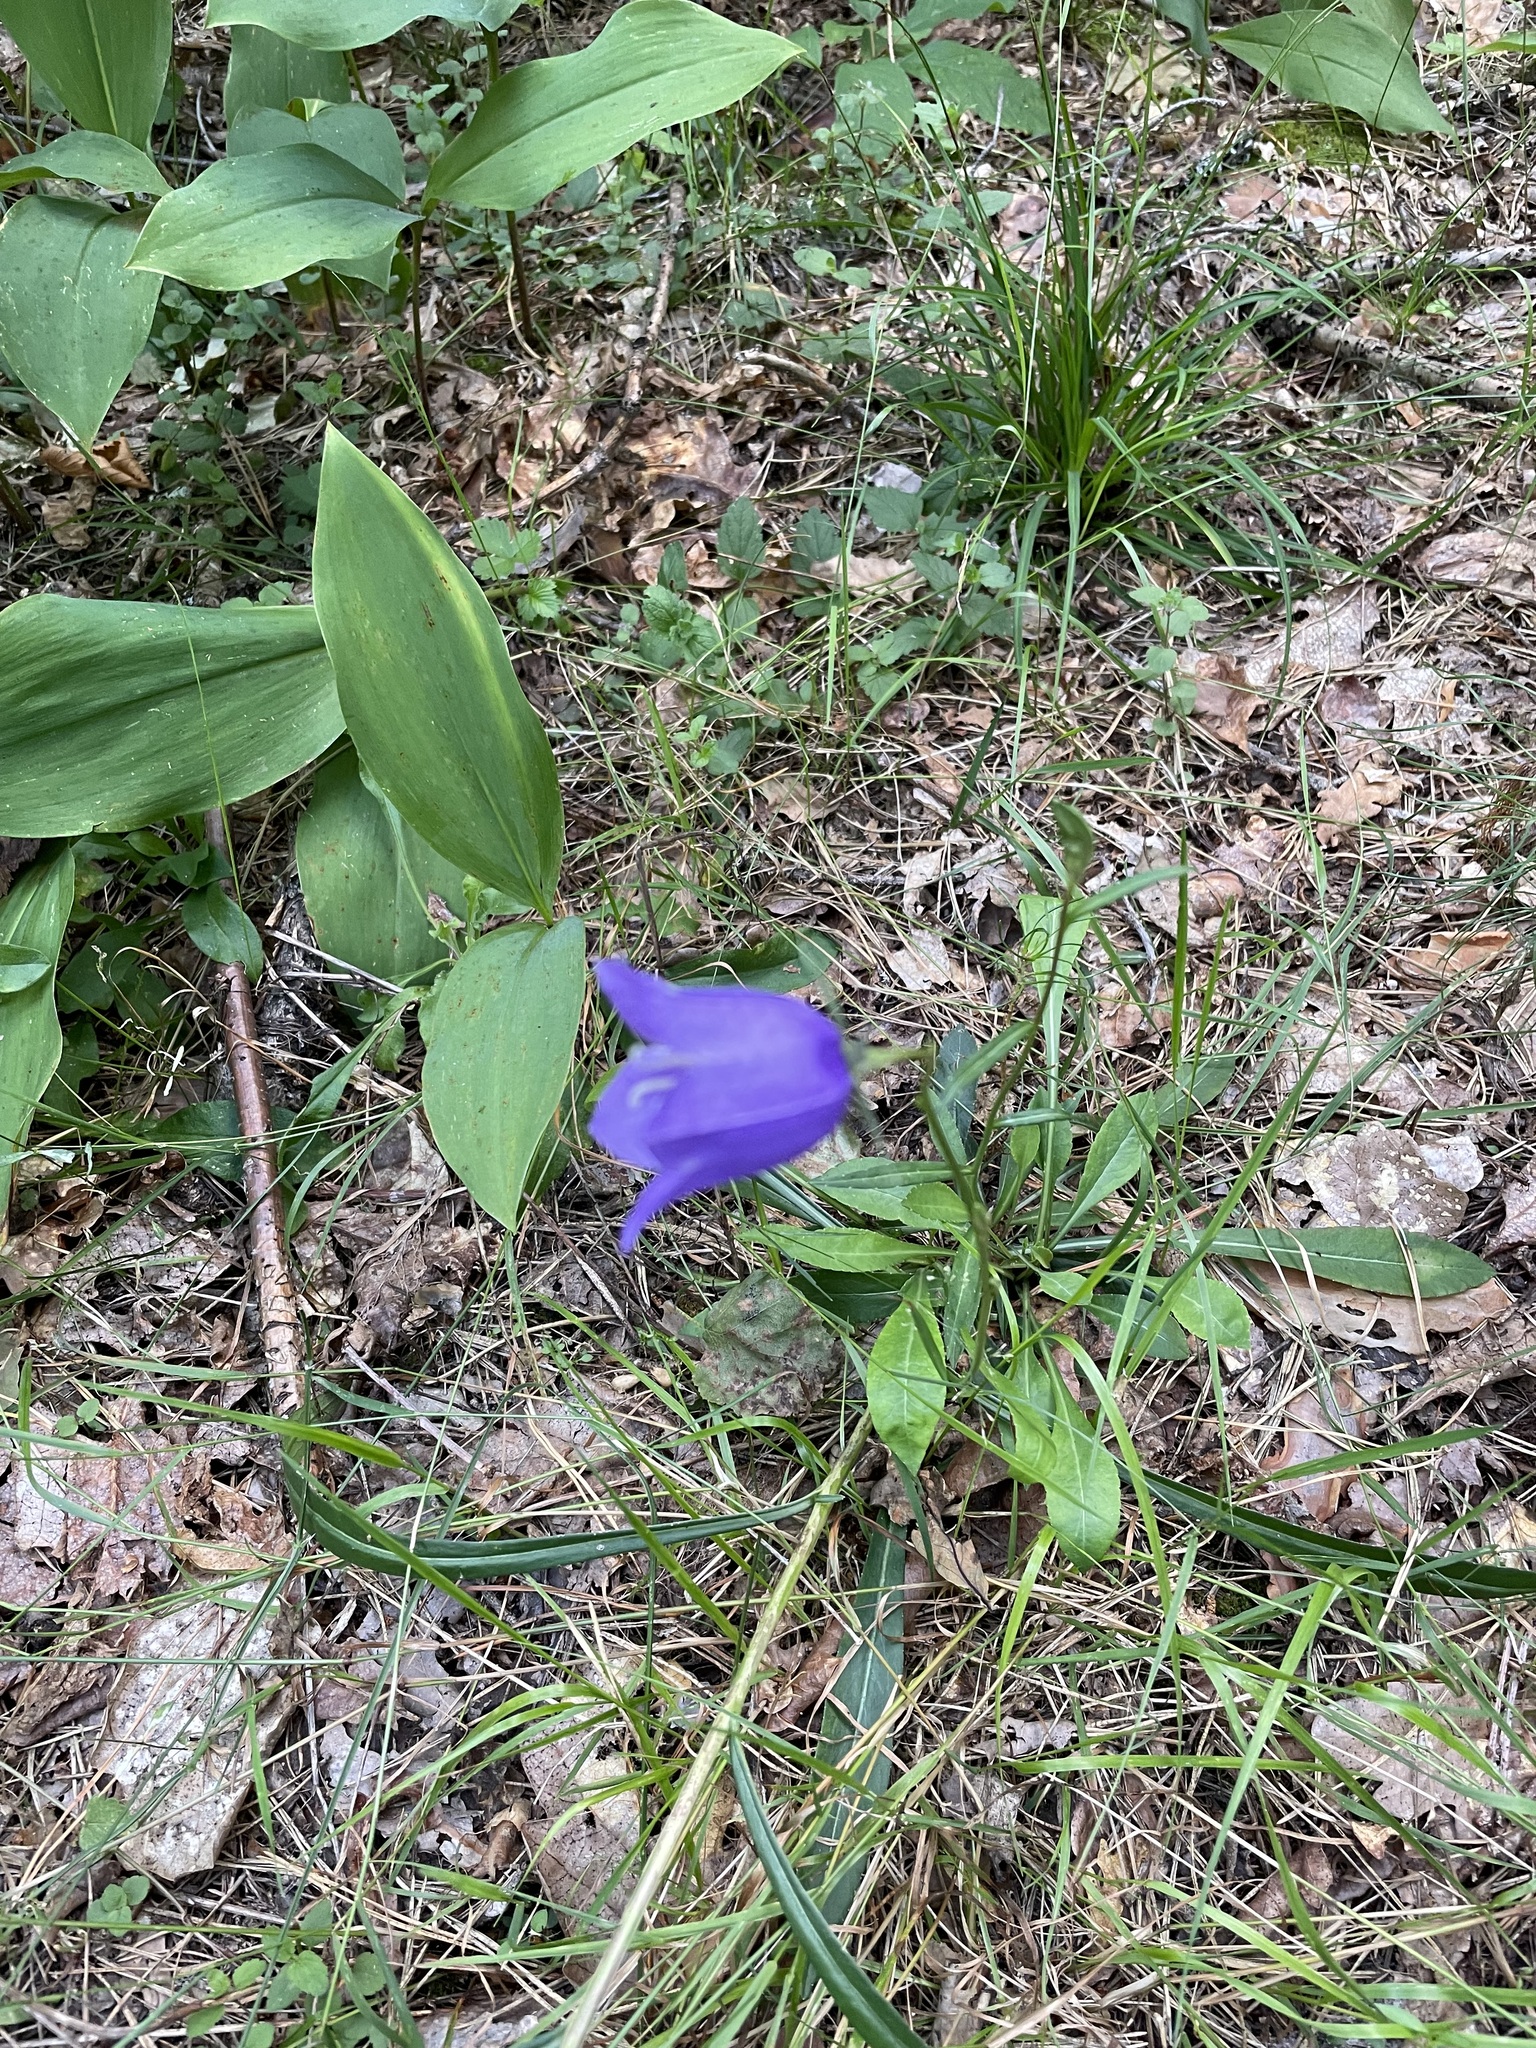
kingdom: Plantae
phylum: Tracheophyta
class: Magnoliopsida
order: Asterales
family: Campanulaceae
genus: Campanula
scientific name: Campanula persicifolia
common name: Peach-leaved bellflower
